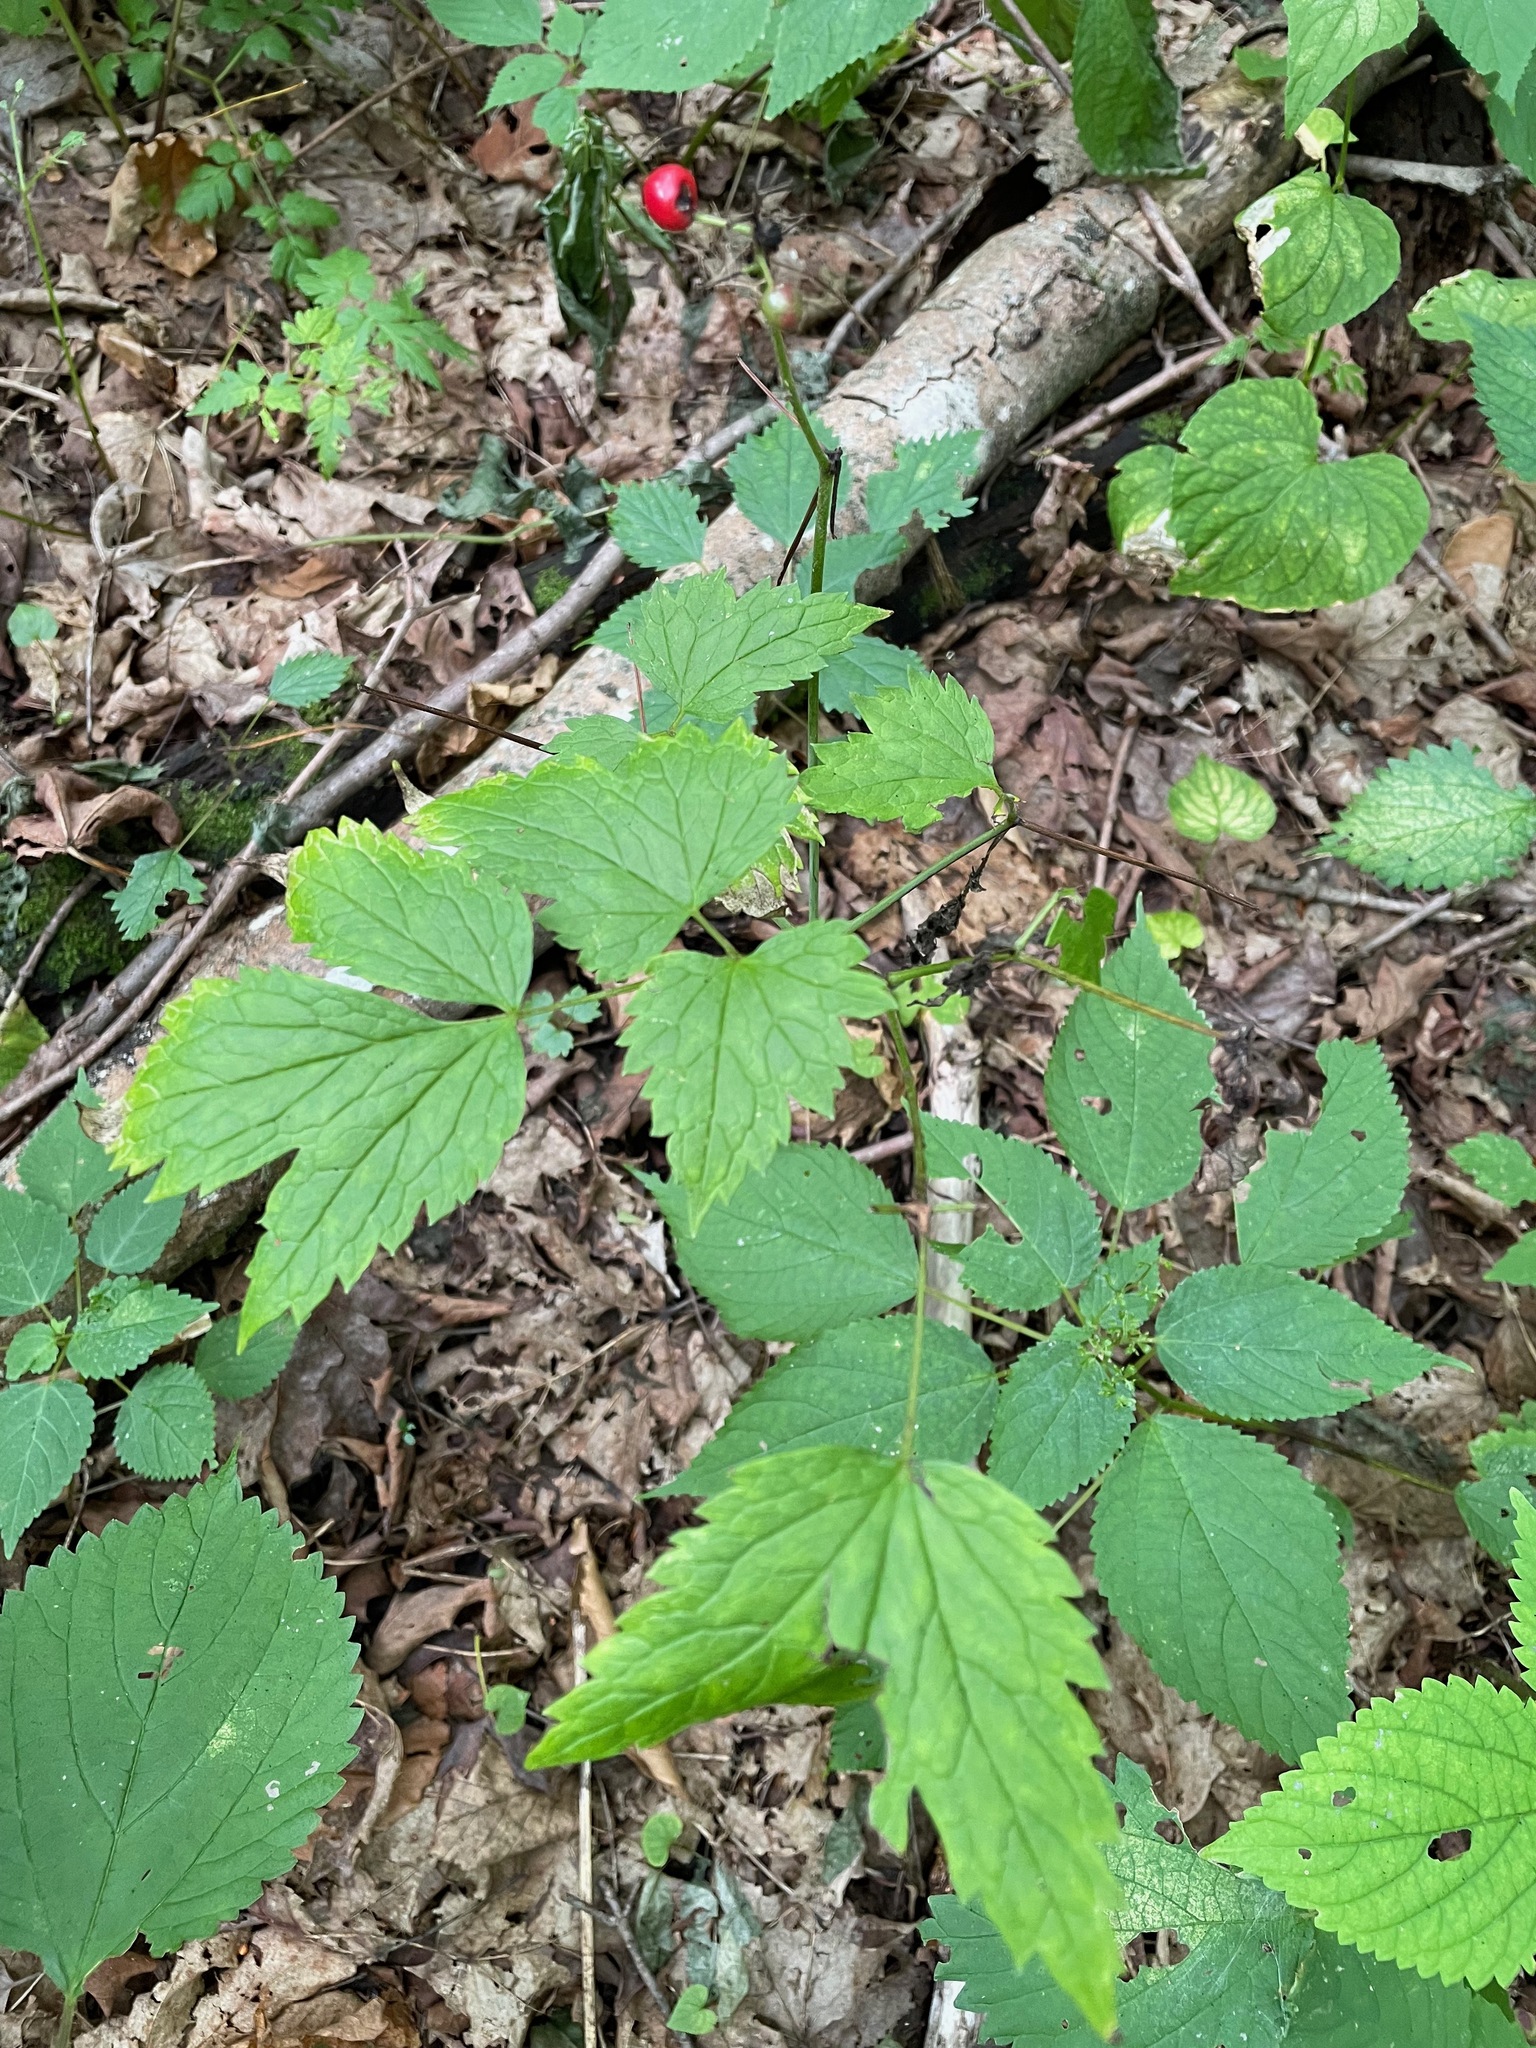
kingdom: Plantae
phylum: Tracheophyta
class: Magnoliopsida
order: Ranunculales
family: Ranunculaceae
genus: Actaea
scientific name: Actaea rubra
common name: Red baneberry
